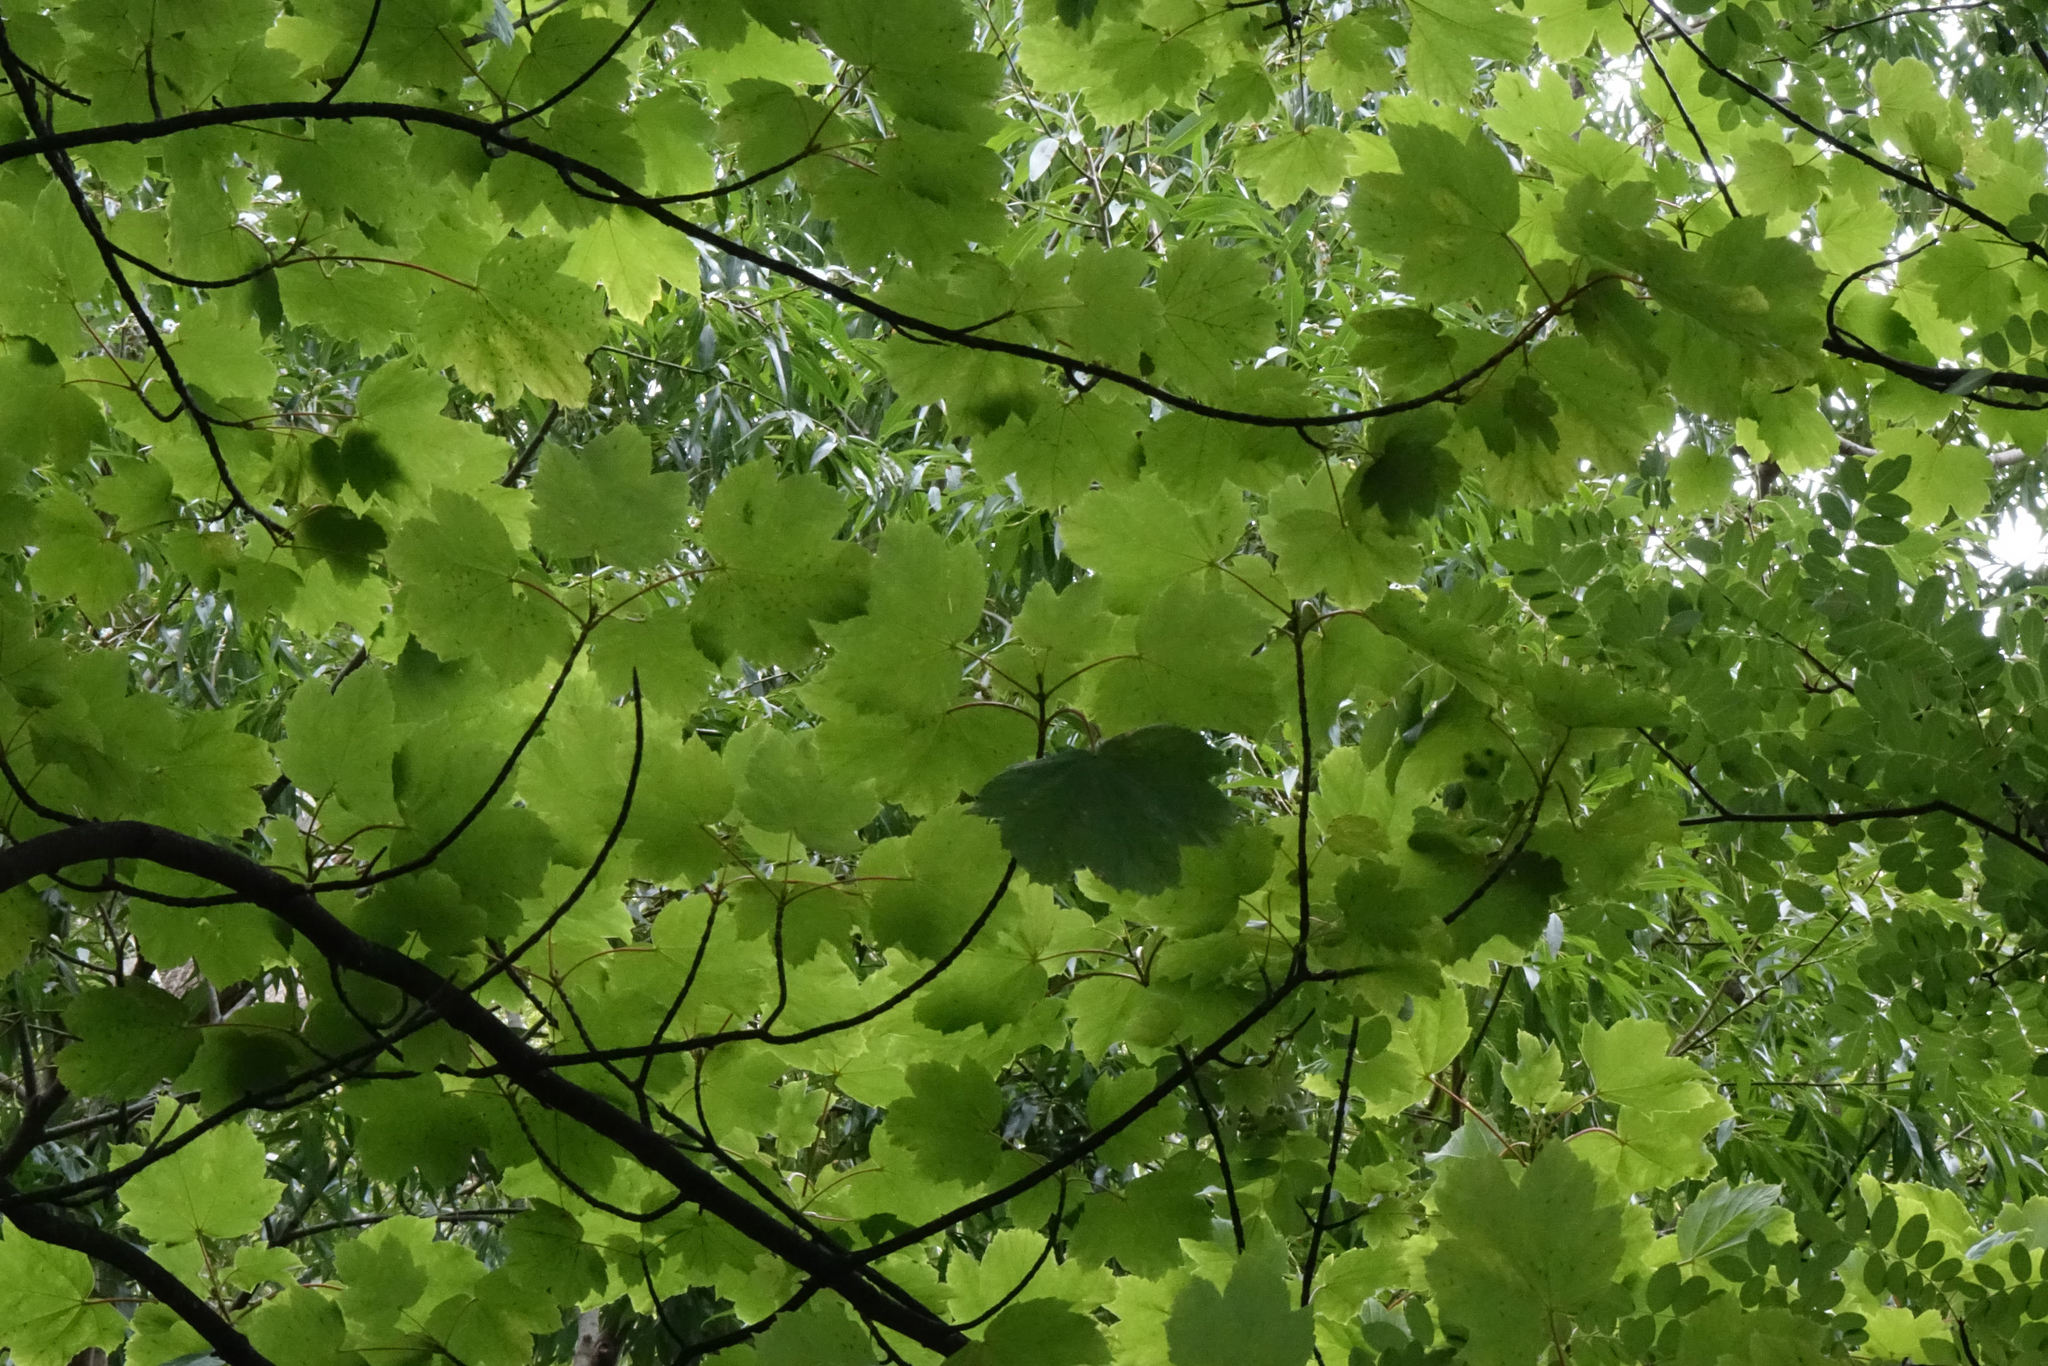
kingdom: Plantae
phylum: Tracheophyta
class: Magnoliopsida
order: Sapindales
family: Sapindaceae
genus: Acer
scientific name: Acer pseudoplatanus
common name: Sycamore
